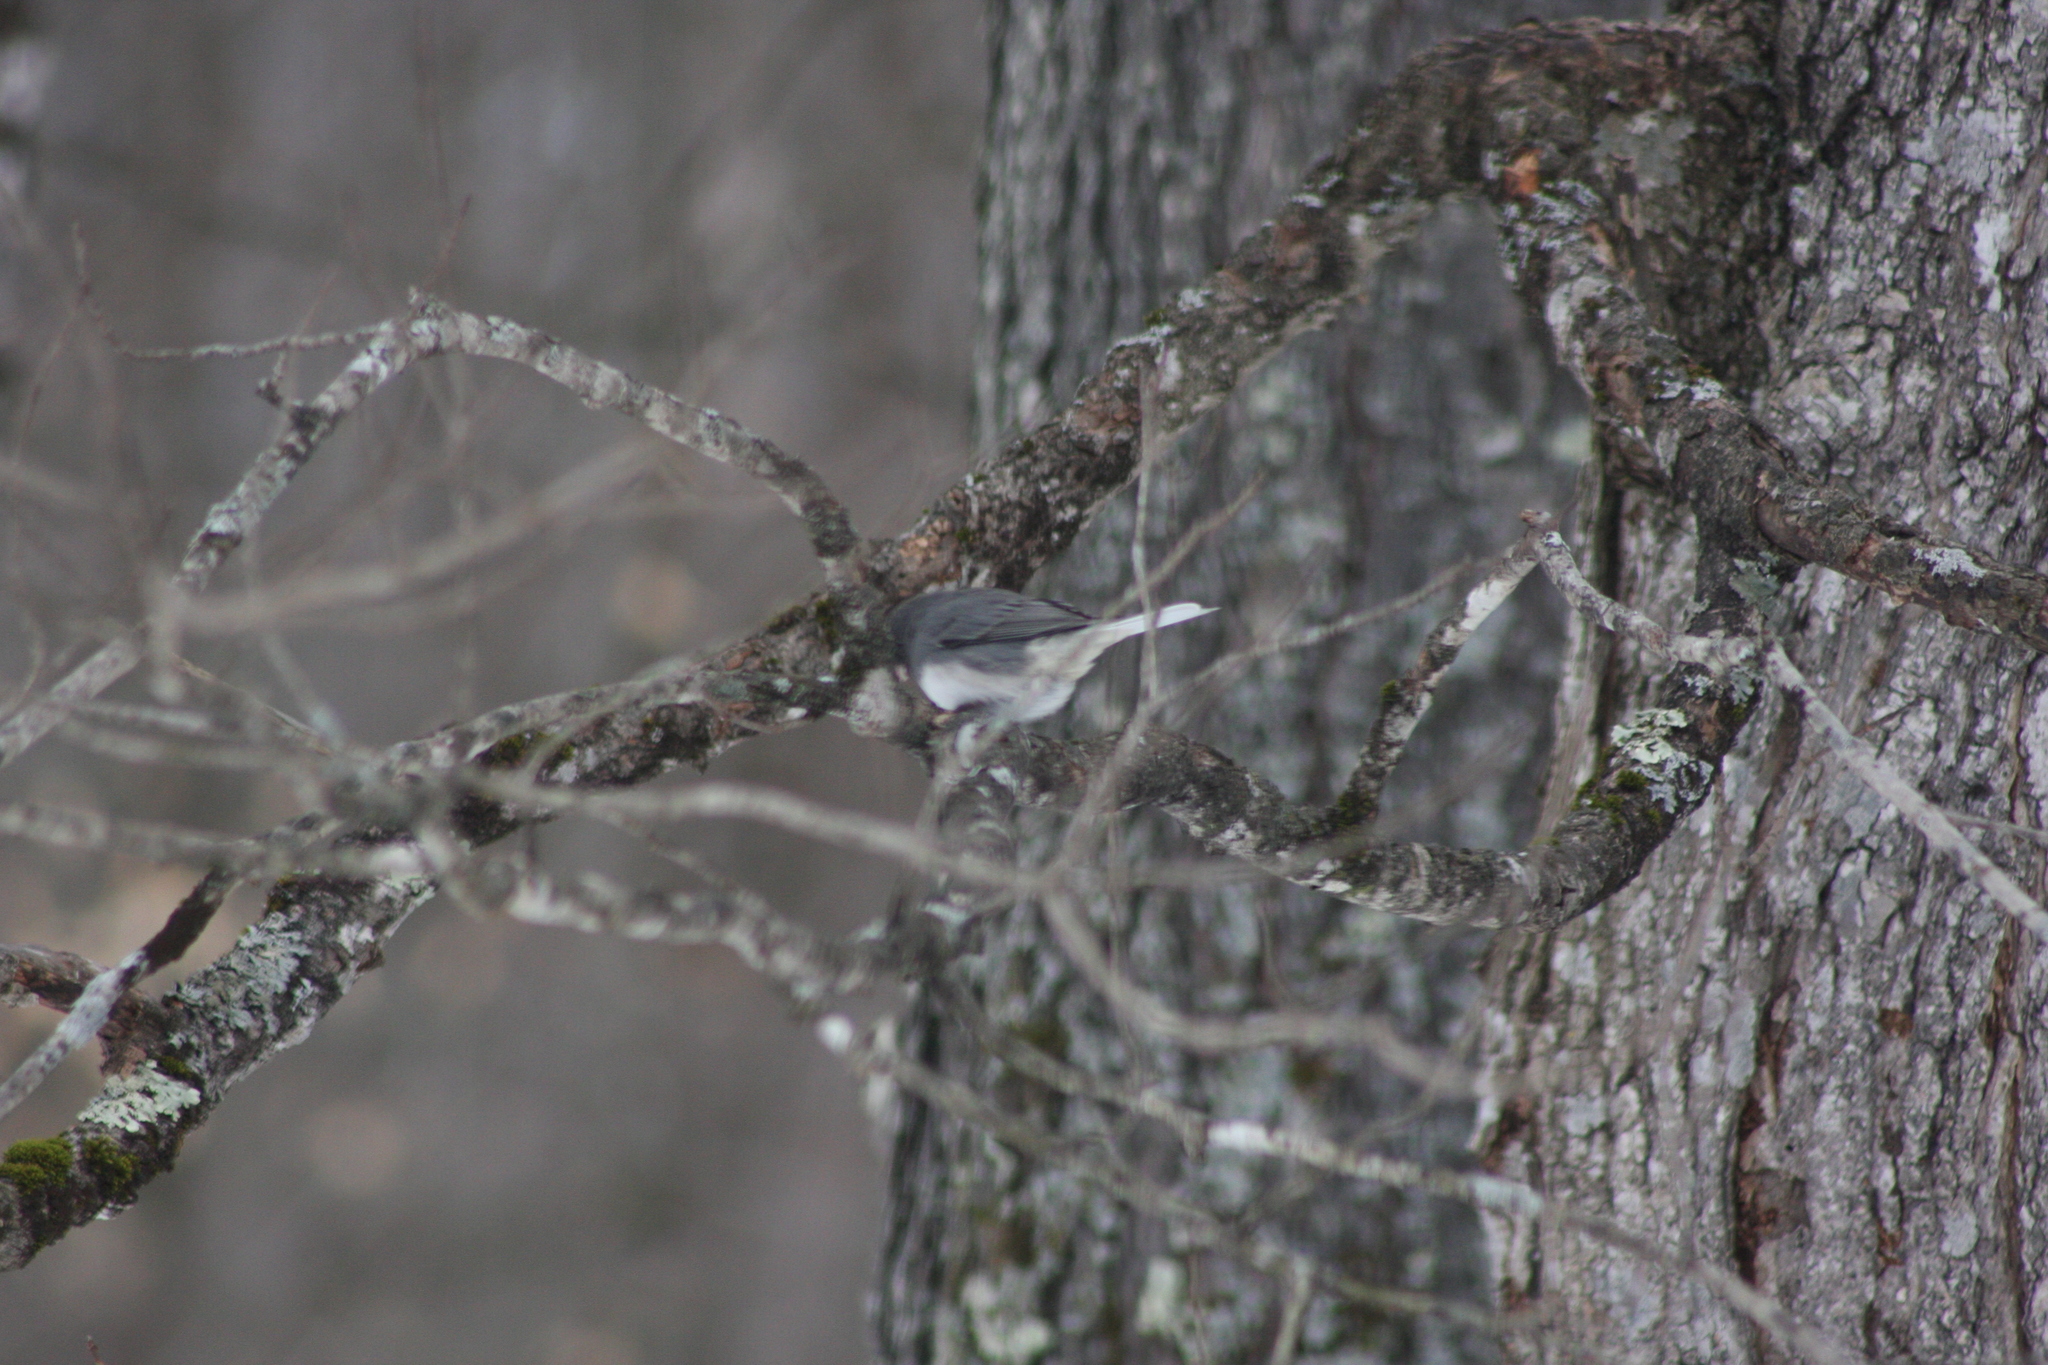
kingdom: Animalia
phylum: Chordata
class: Aves
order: Passeriformes
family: Passerellidae
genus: Junco
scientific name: Junco hyemalis
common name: Dark-eyed junco
